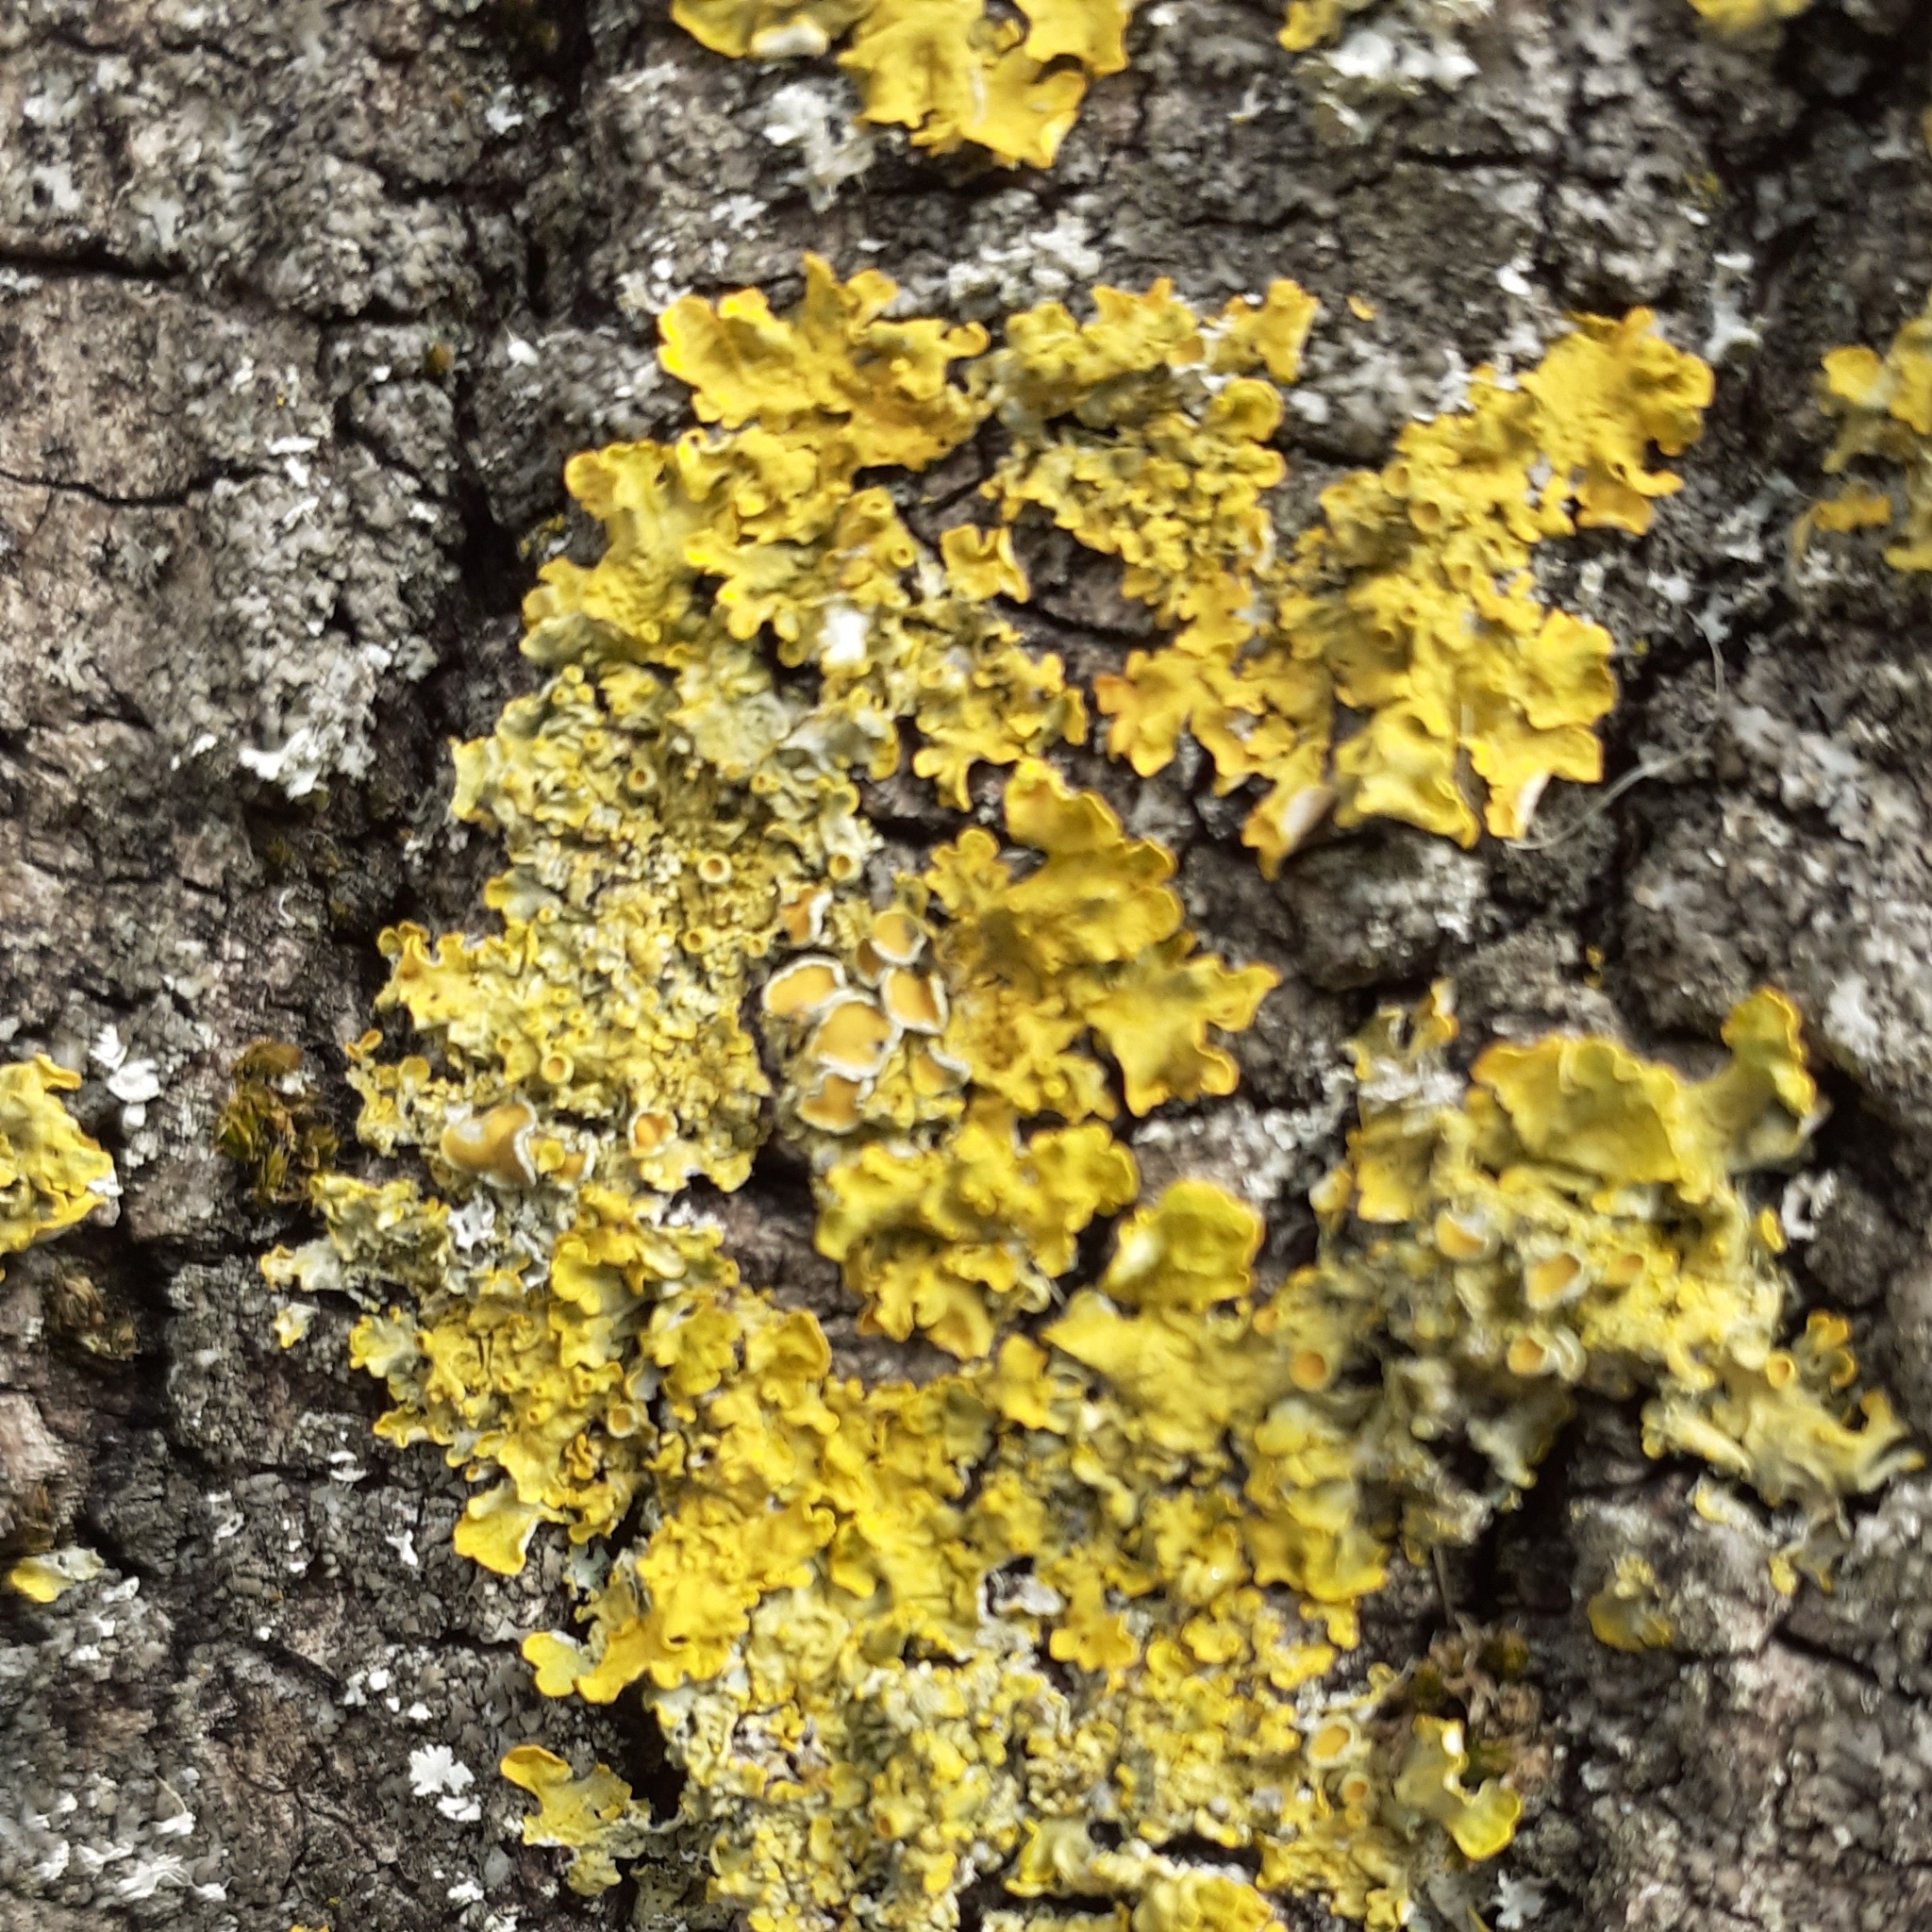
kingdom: Fungi
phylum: Ascomycota
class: Lecanoromycetes
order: Teloschistales
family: Teloschistaceae
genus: Xanthoria
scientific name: Xanthoria parietina
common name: Common orange lichen
